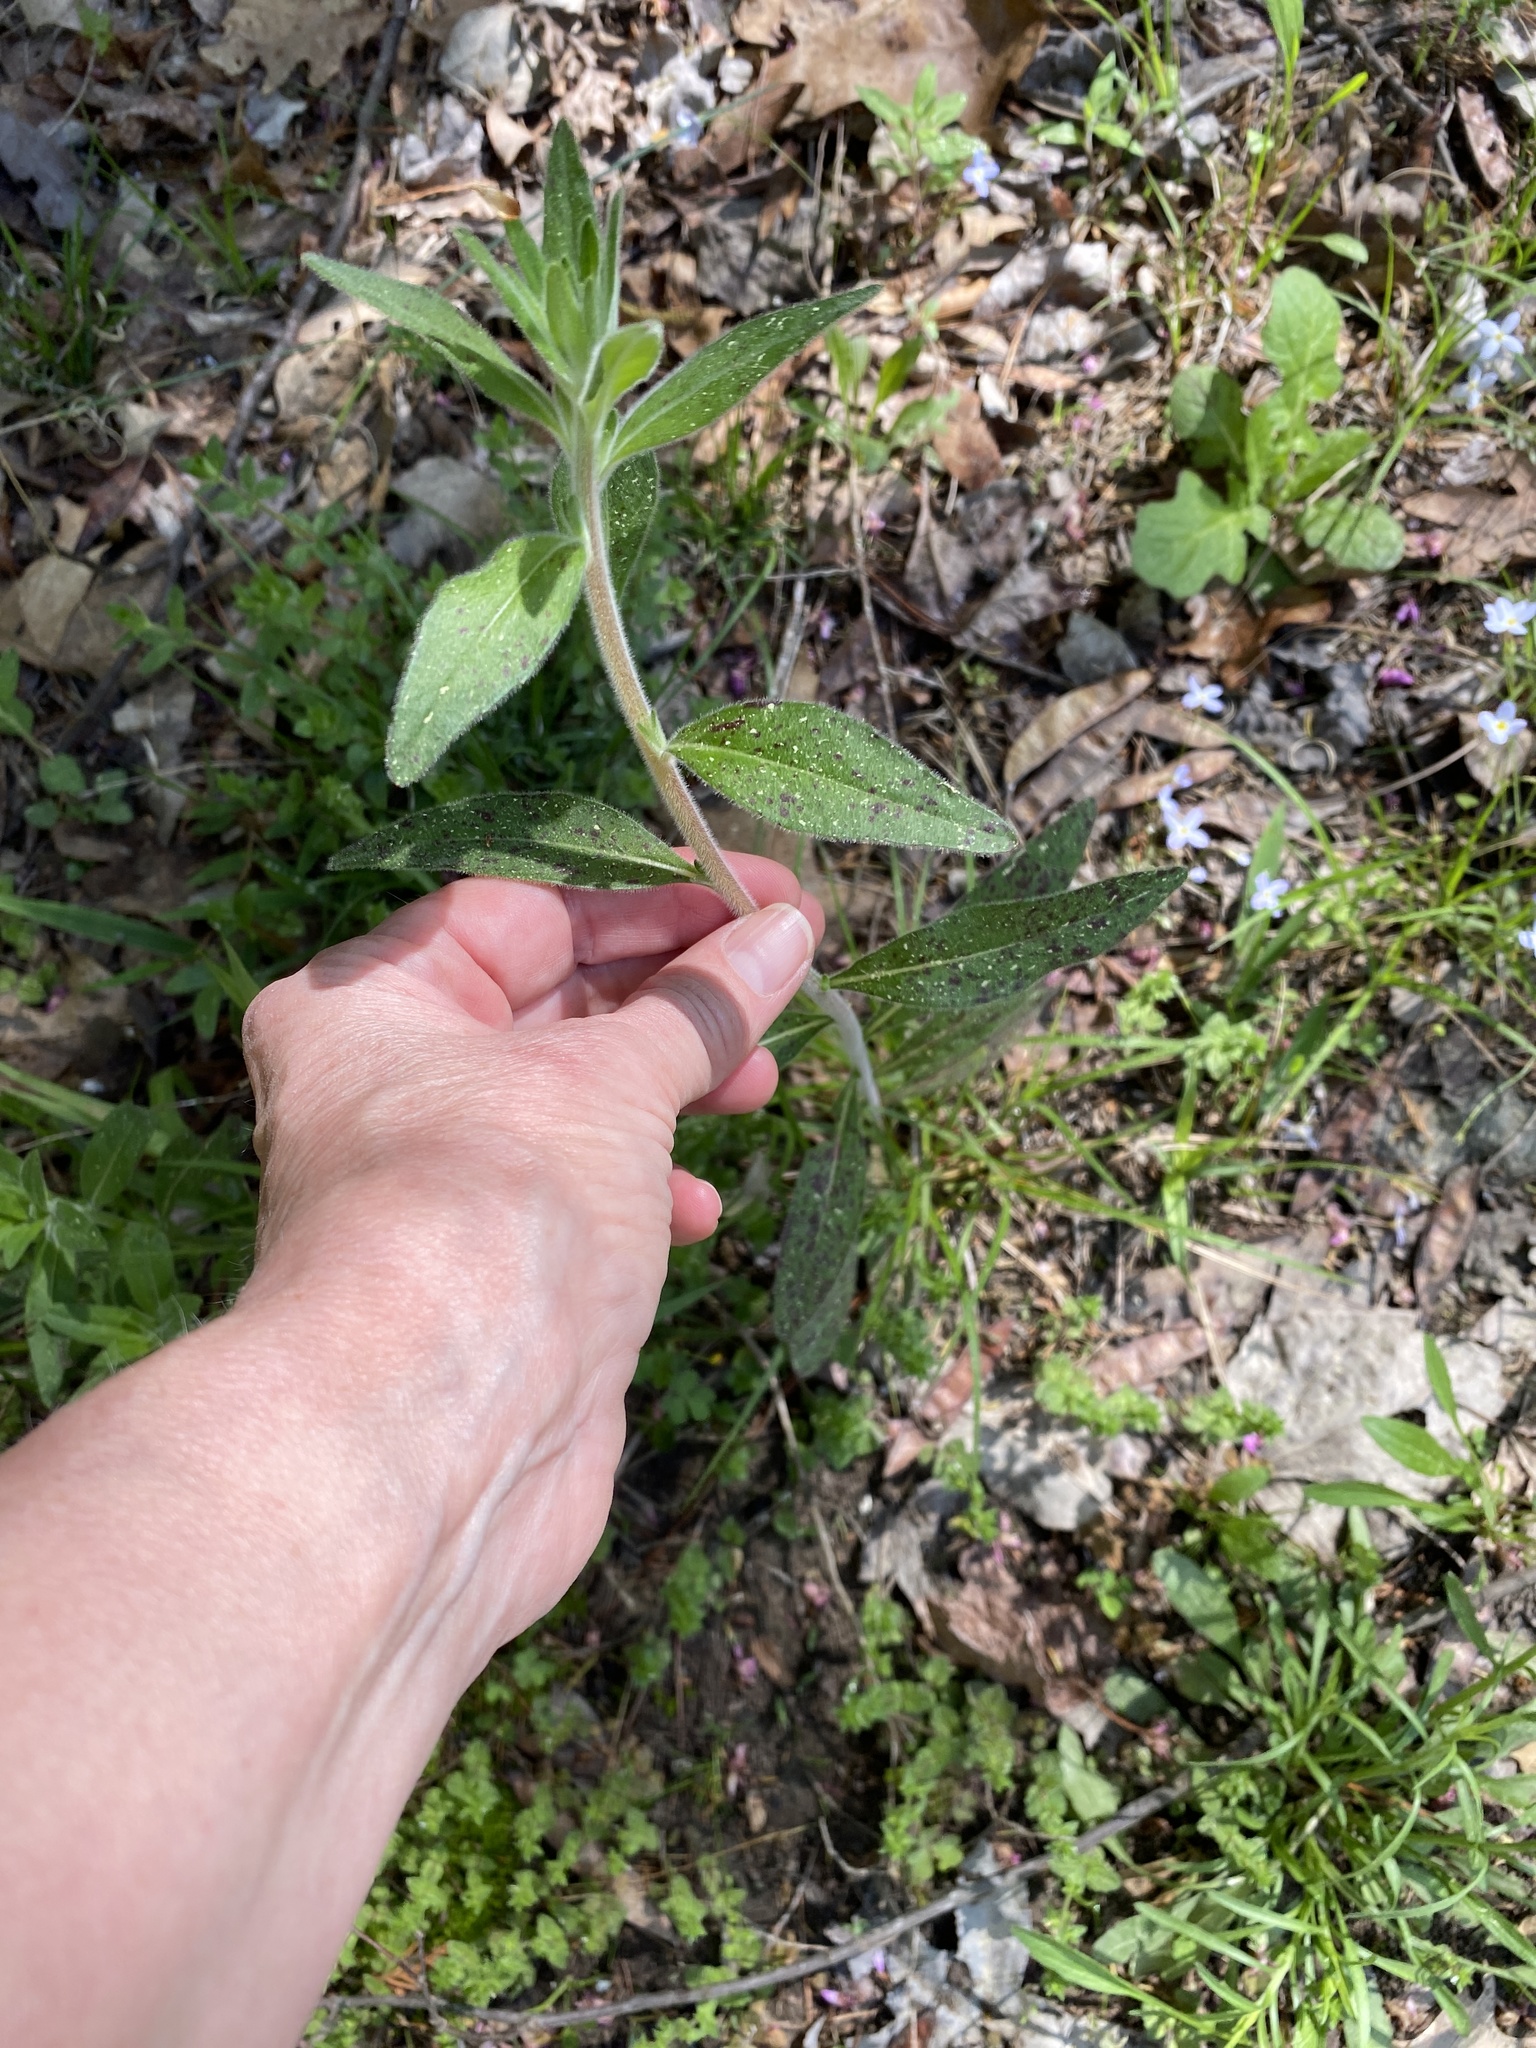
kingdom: Plantae
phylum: Tracheophyta
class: Magnoliopsida
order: Myrtales
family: Onagraceae
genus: Oenothera
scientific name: Oenothera fruticosa
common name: Southern sundrops
